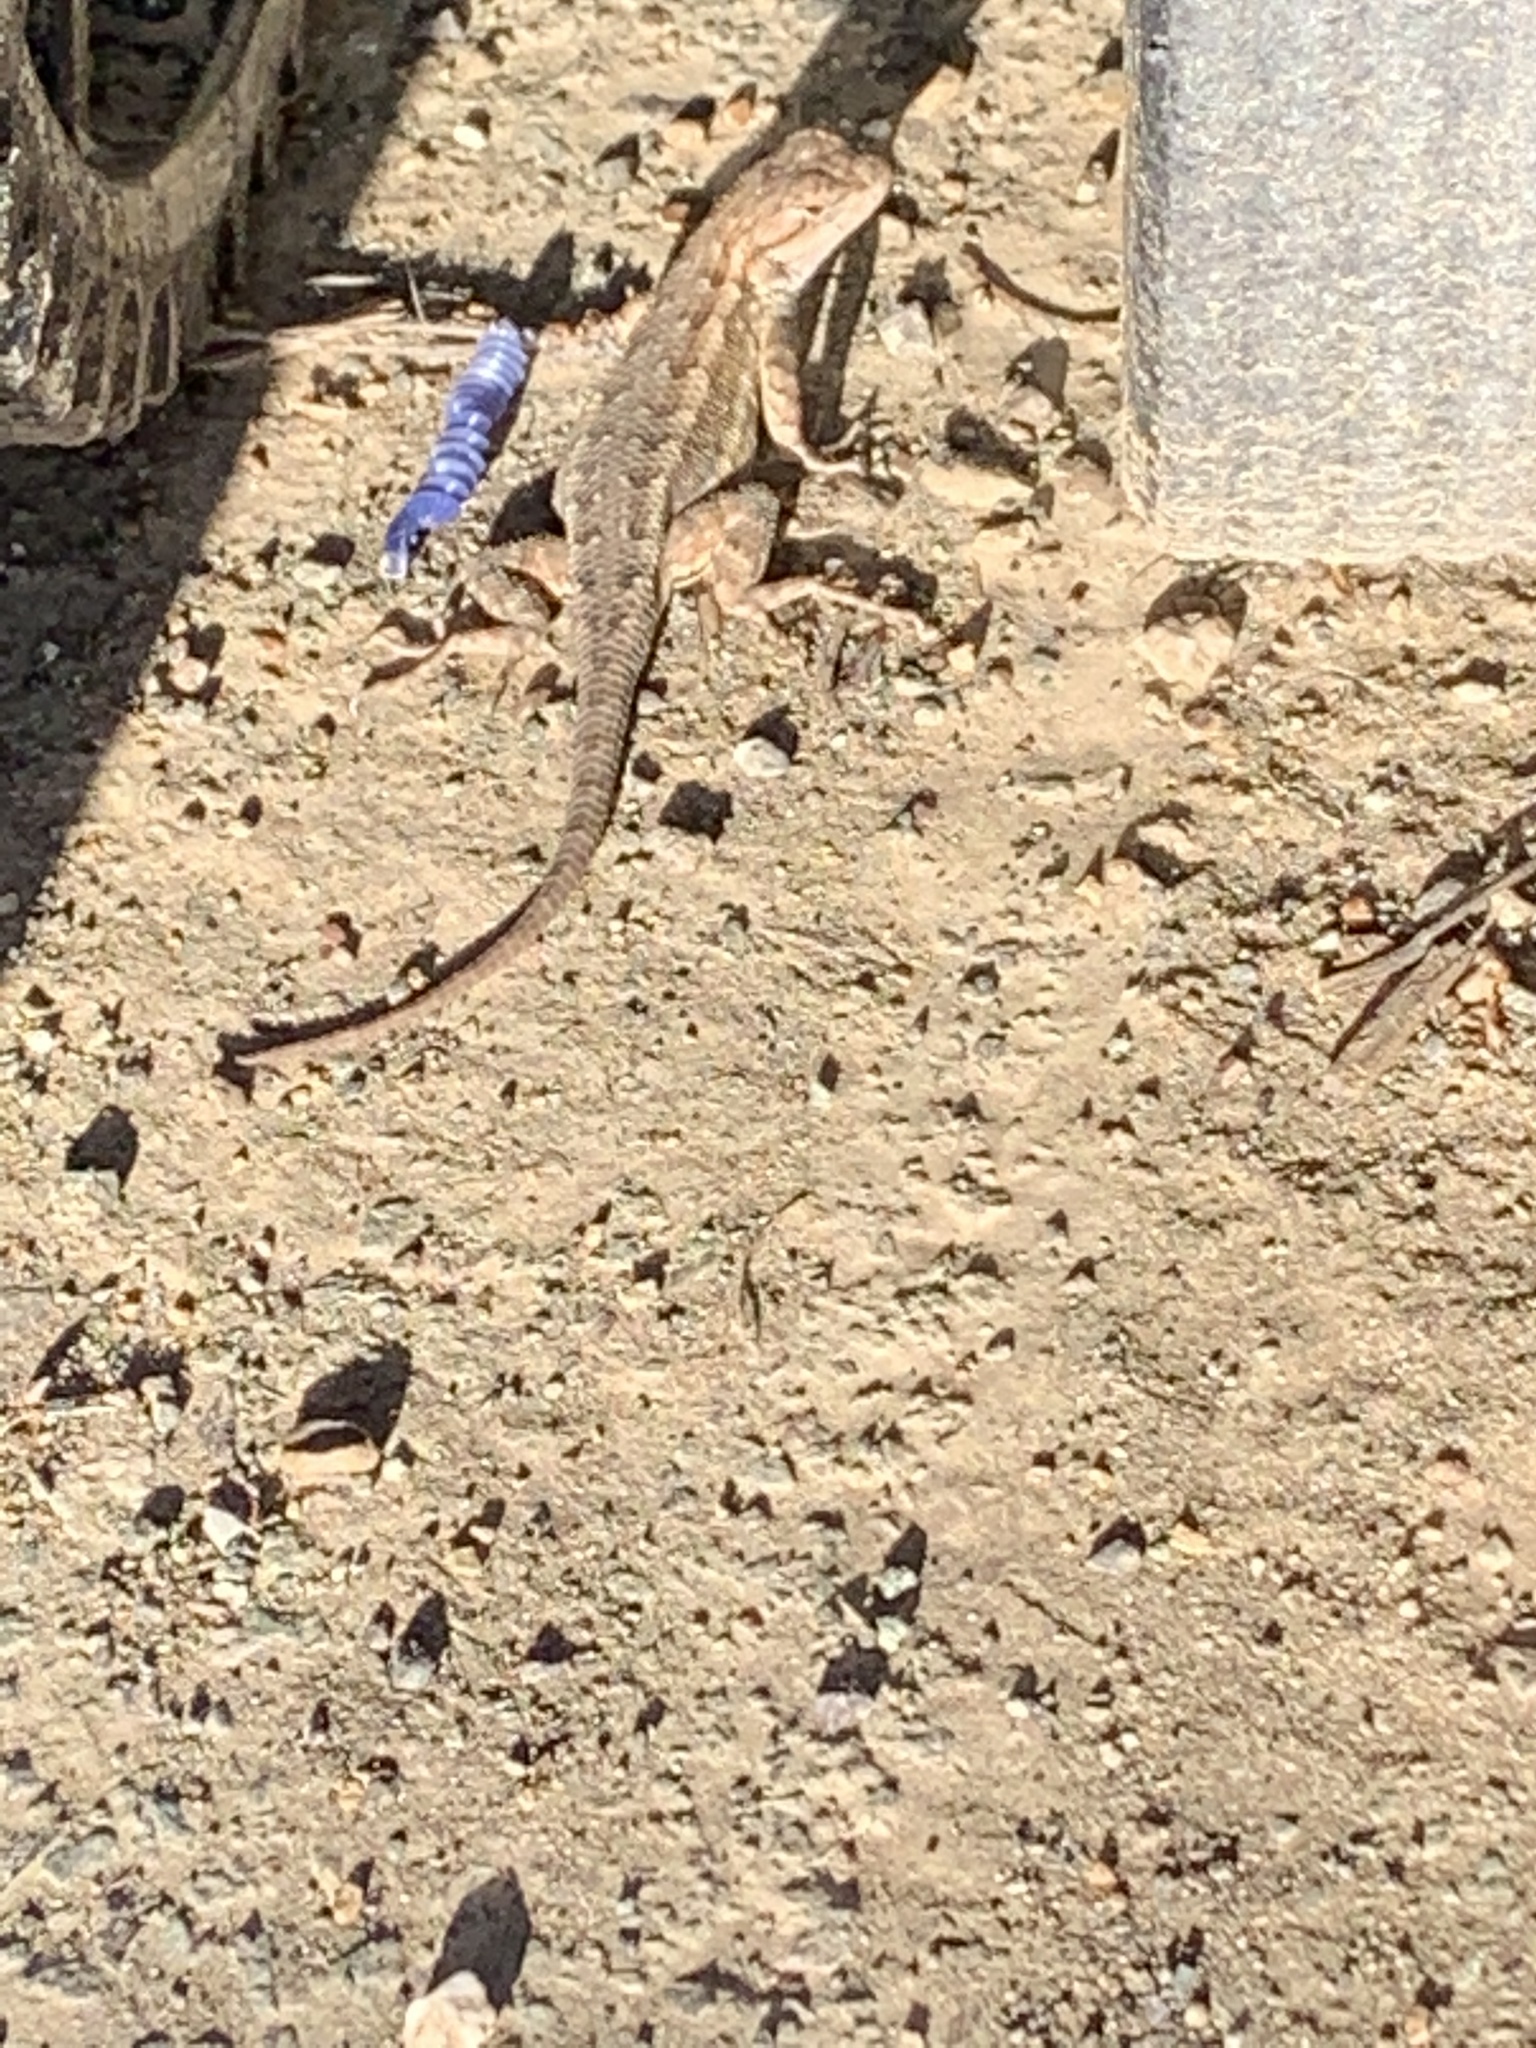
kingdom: Animalia
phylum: Chordata
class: Squamata
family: Phrynosomatidae
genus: Sceloporus
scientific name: Sceloporus occidentalis
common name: Western fence lizard
